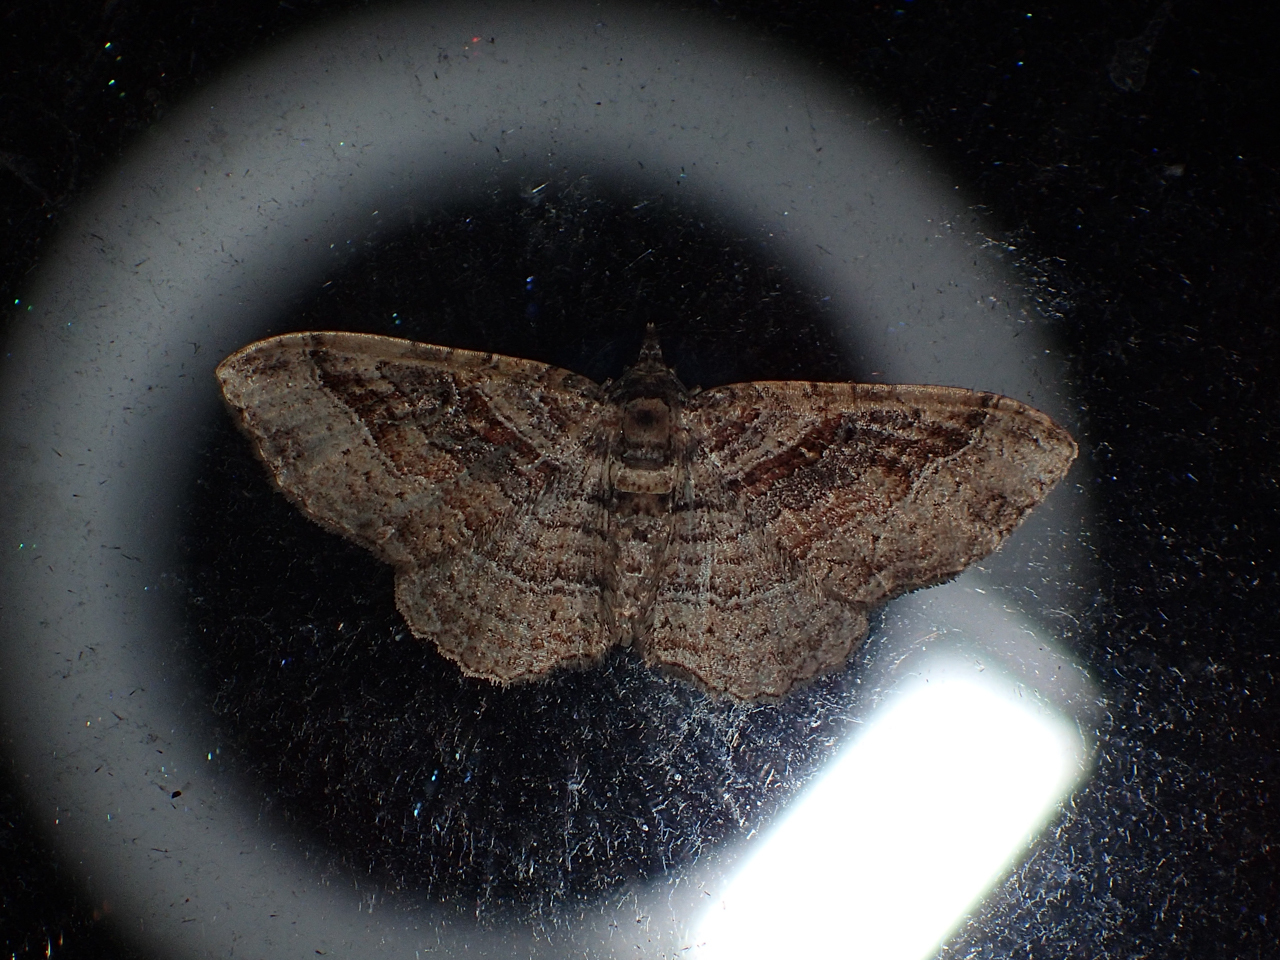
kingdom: Animalia
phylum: Arthropoda
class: Insecta
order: Lepidoptera
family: Geometridae
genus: Costaconvexa
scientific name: Costaconvexa centrostrigaria
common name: Bent-line carpet
